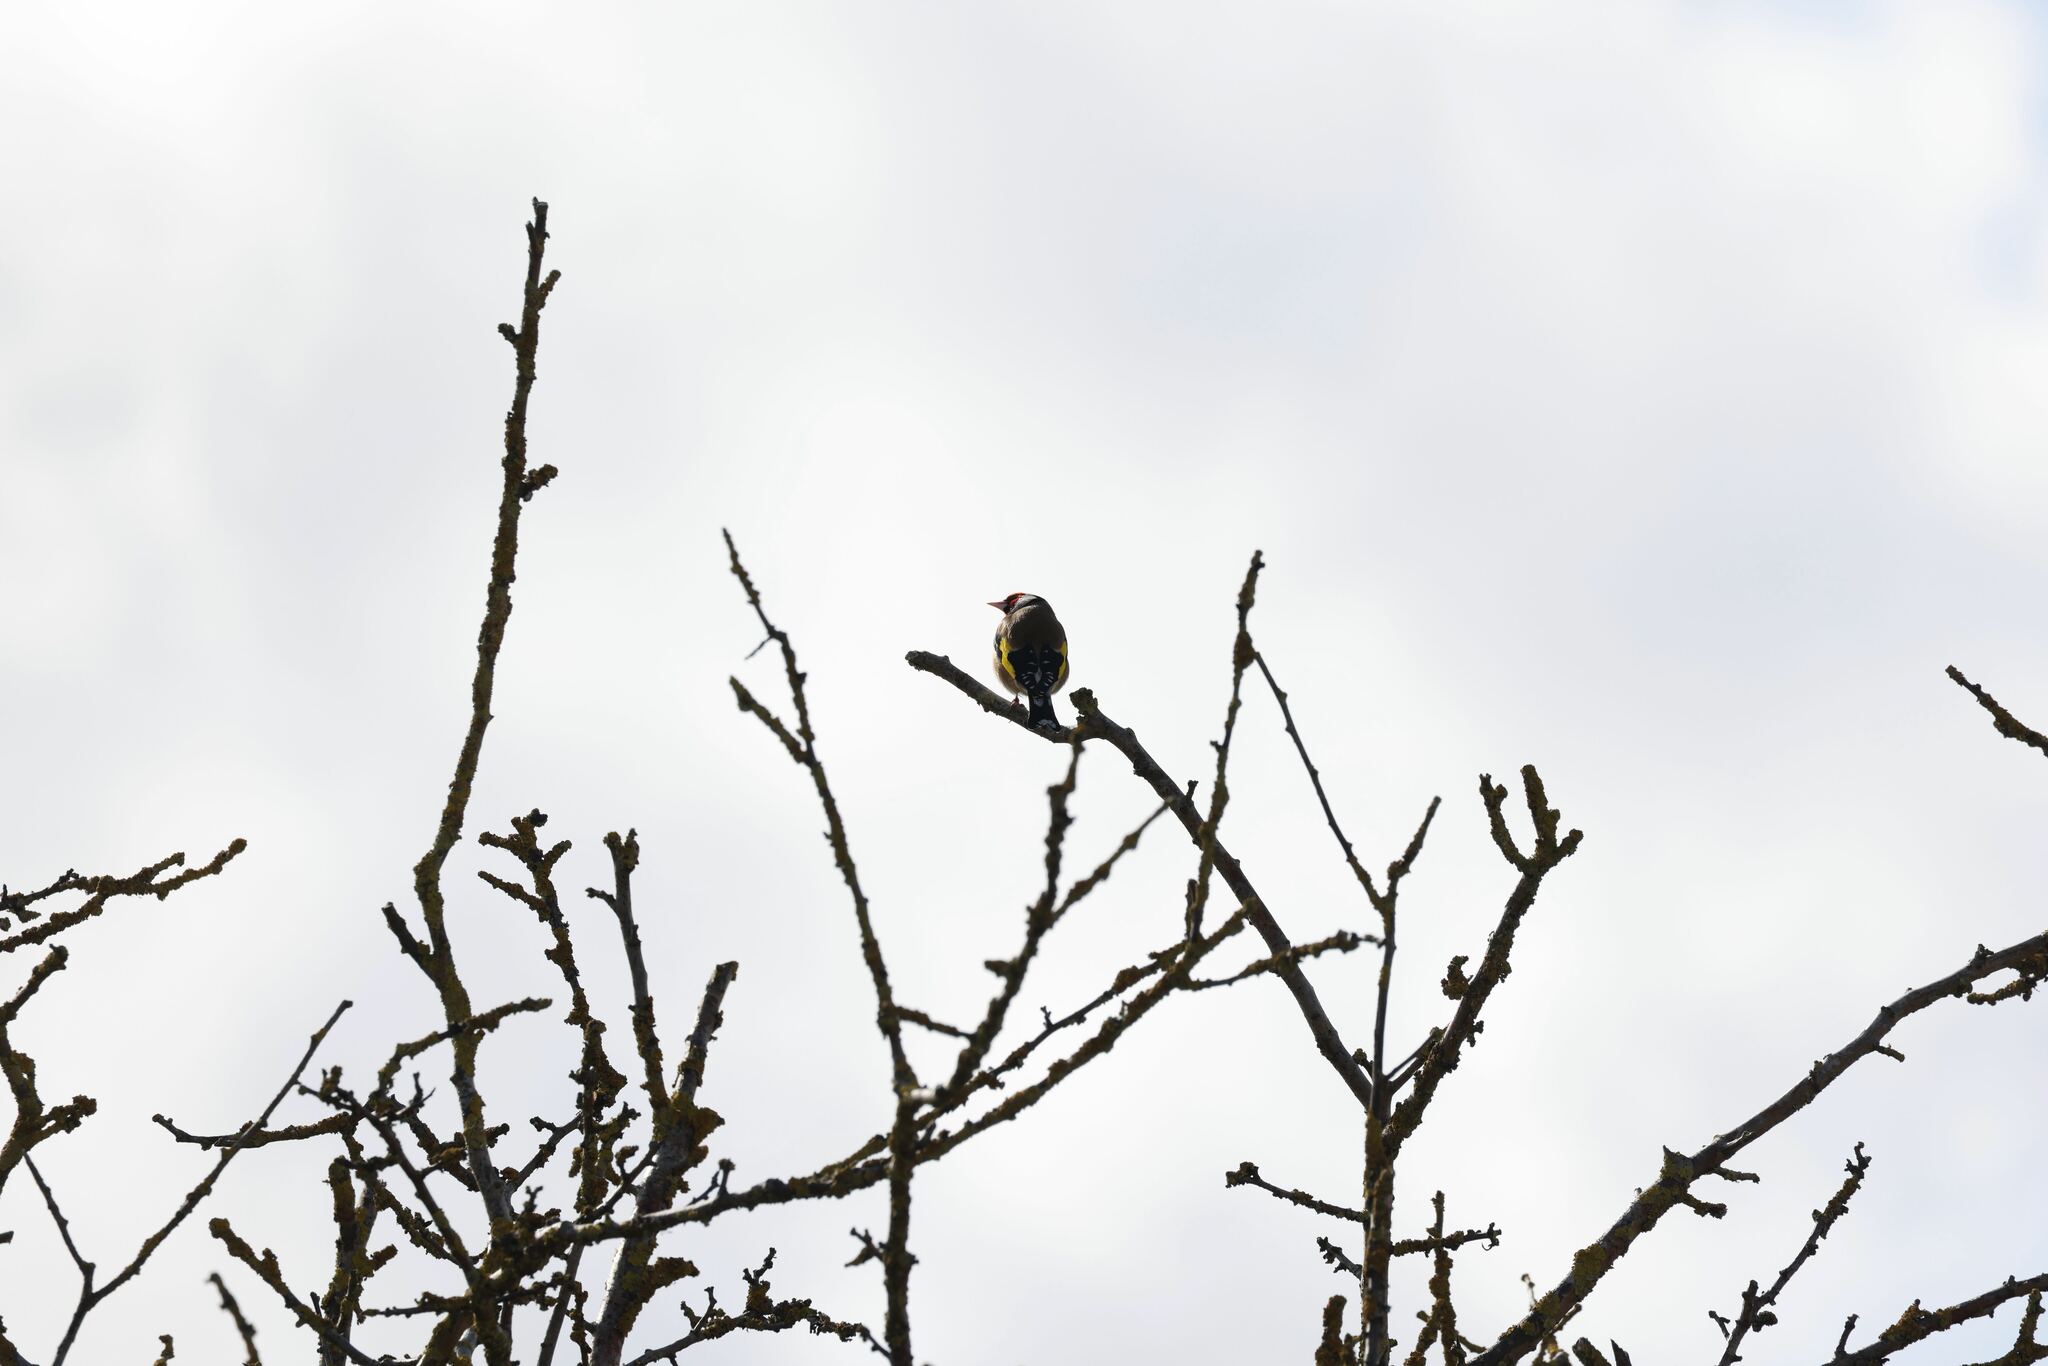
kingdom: Animalia
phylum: Chordata
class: Aves
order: Passeriformes
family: Fringillidae
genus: Carduelis
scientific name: Carduelis carduelis
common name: European goldfinch
